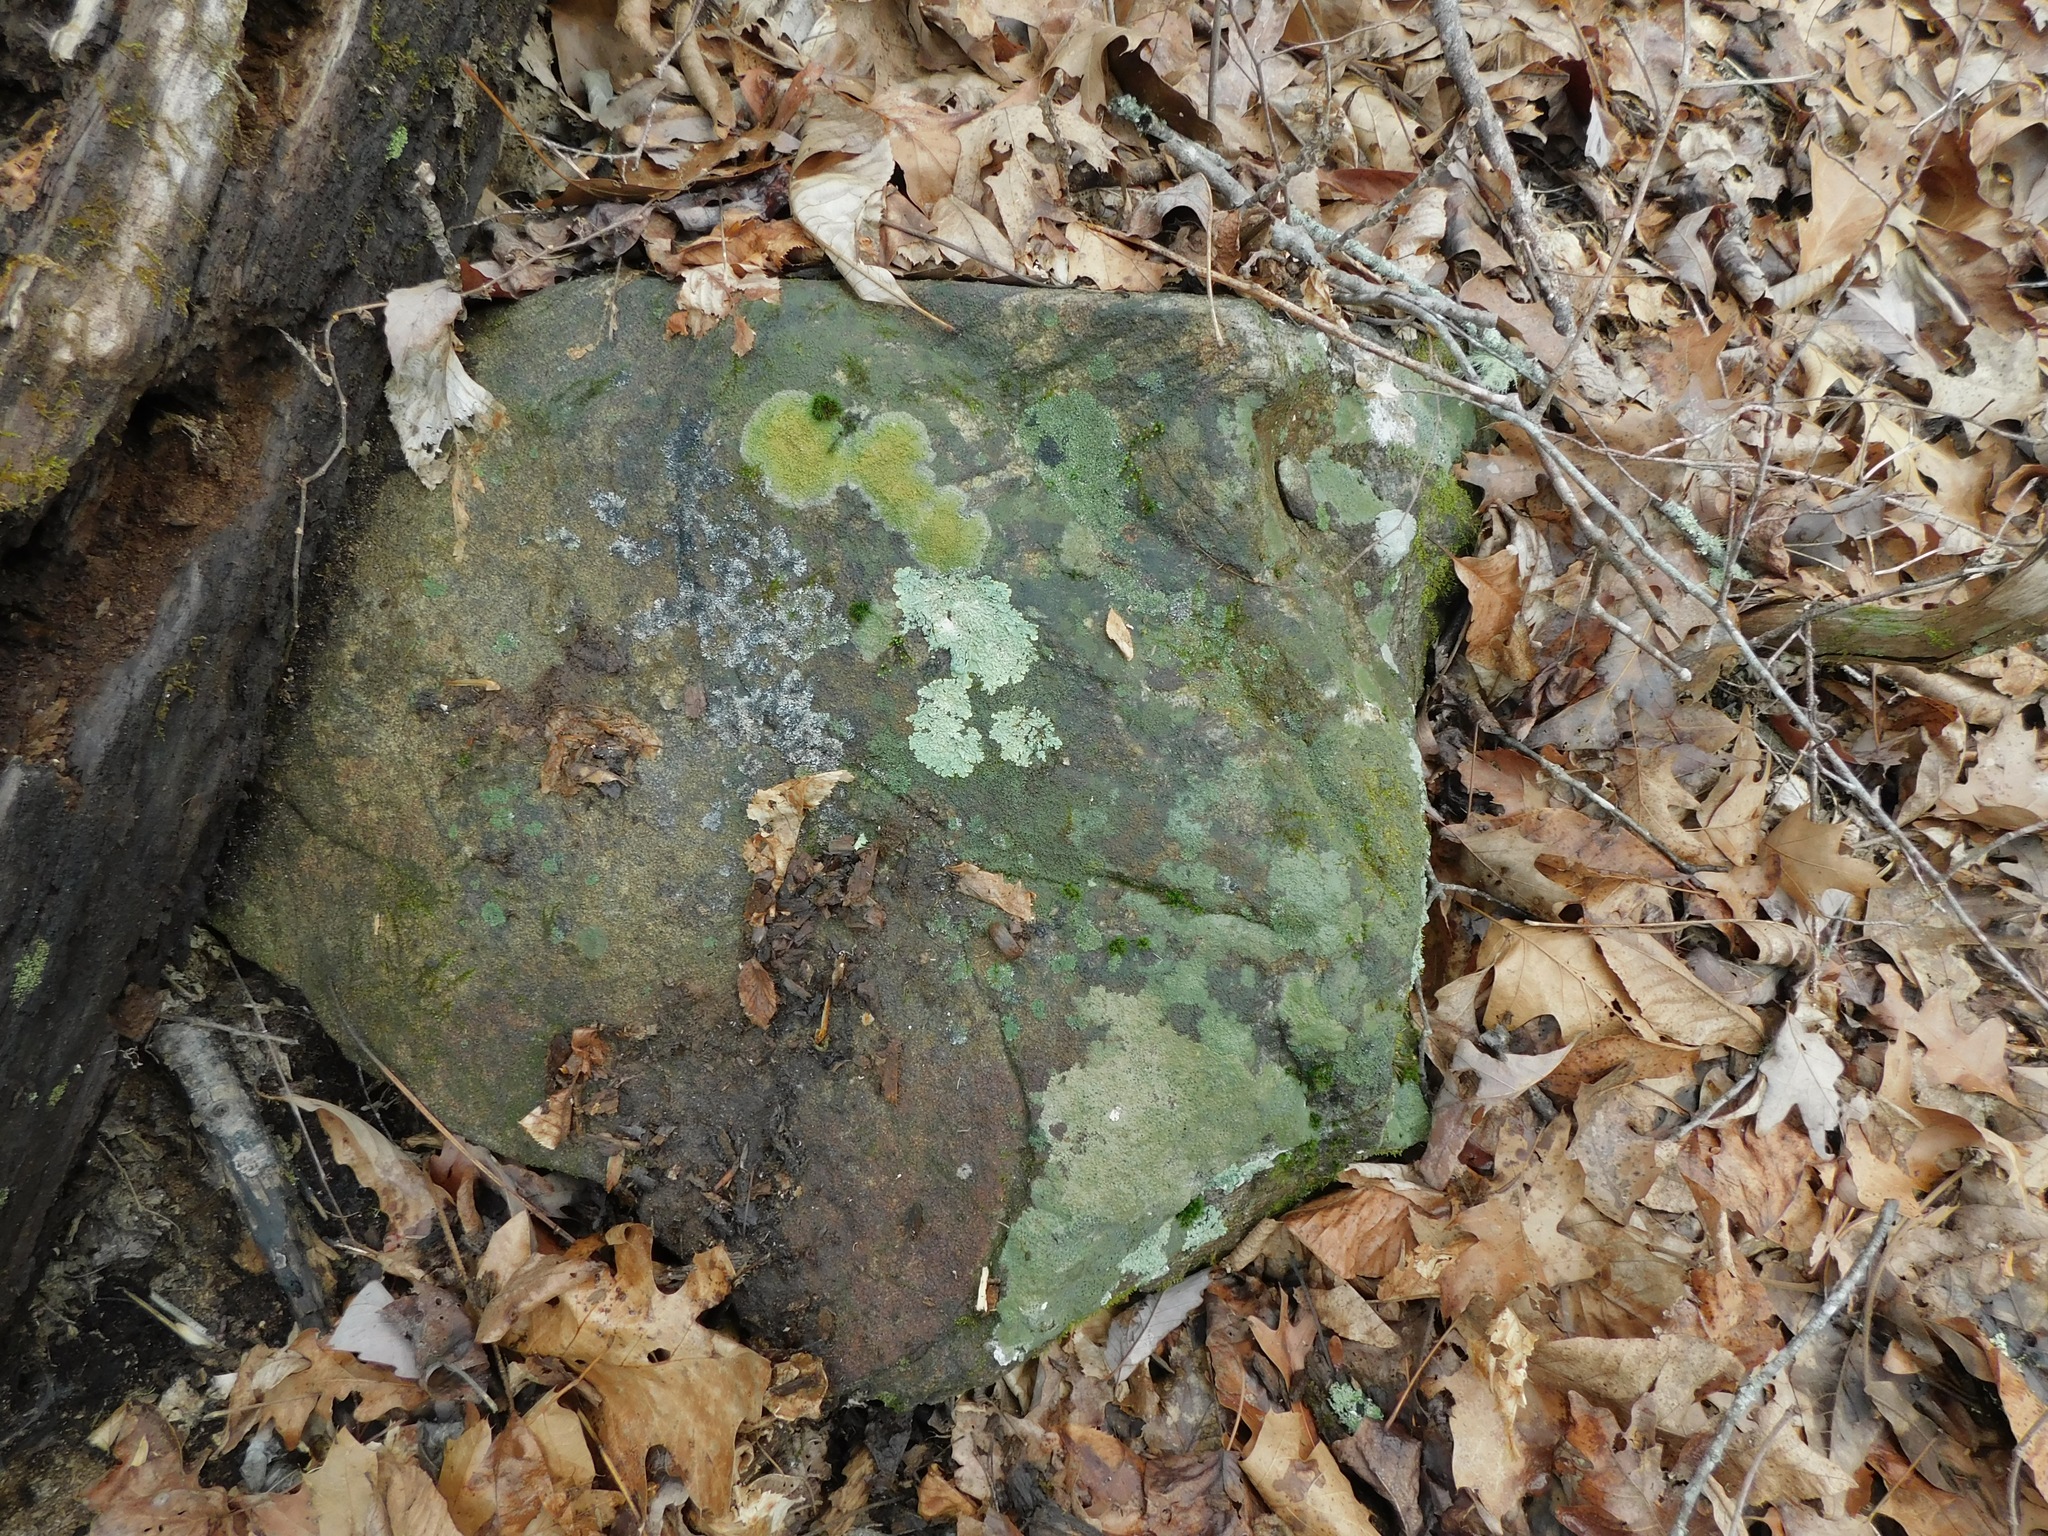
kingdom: Fungi
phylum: Ascomycota
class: Lecanoromycetes
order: Teloschistales
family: Teloschistaceae
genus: Gyalolechia
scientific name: Gyalolechia flavovirescens
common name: Sulphur firedot
